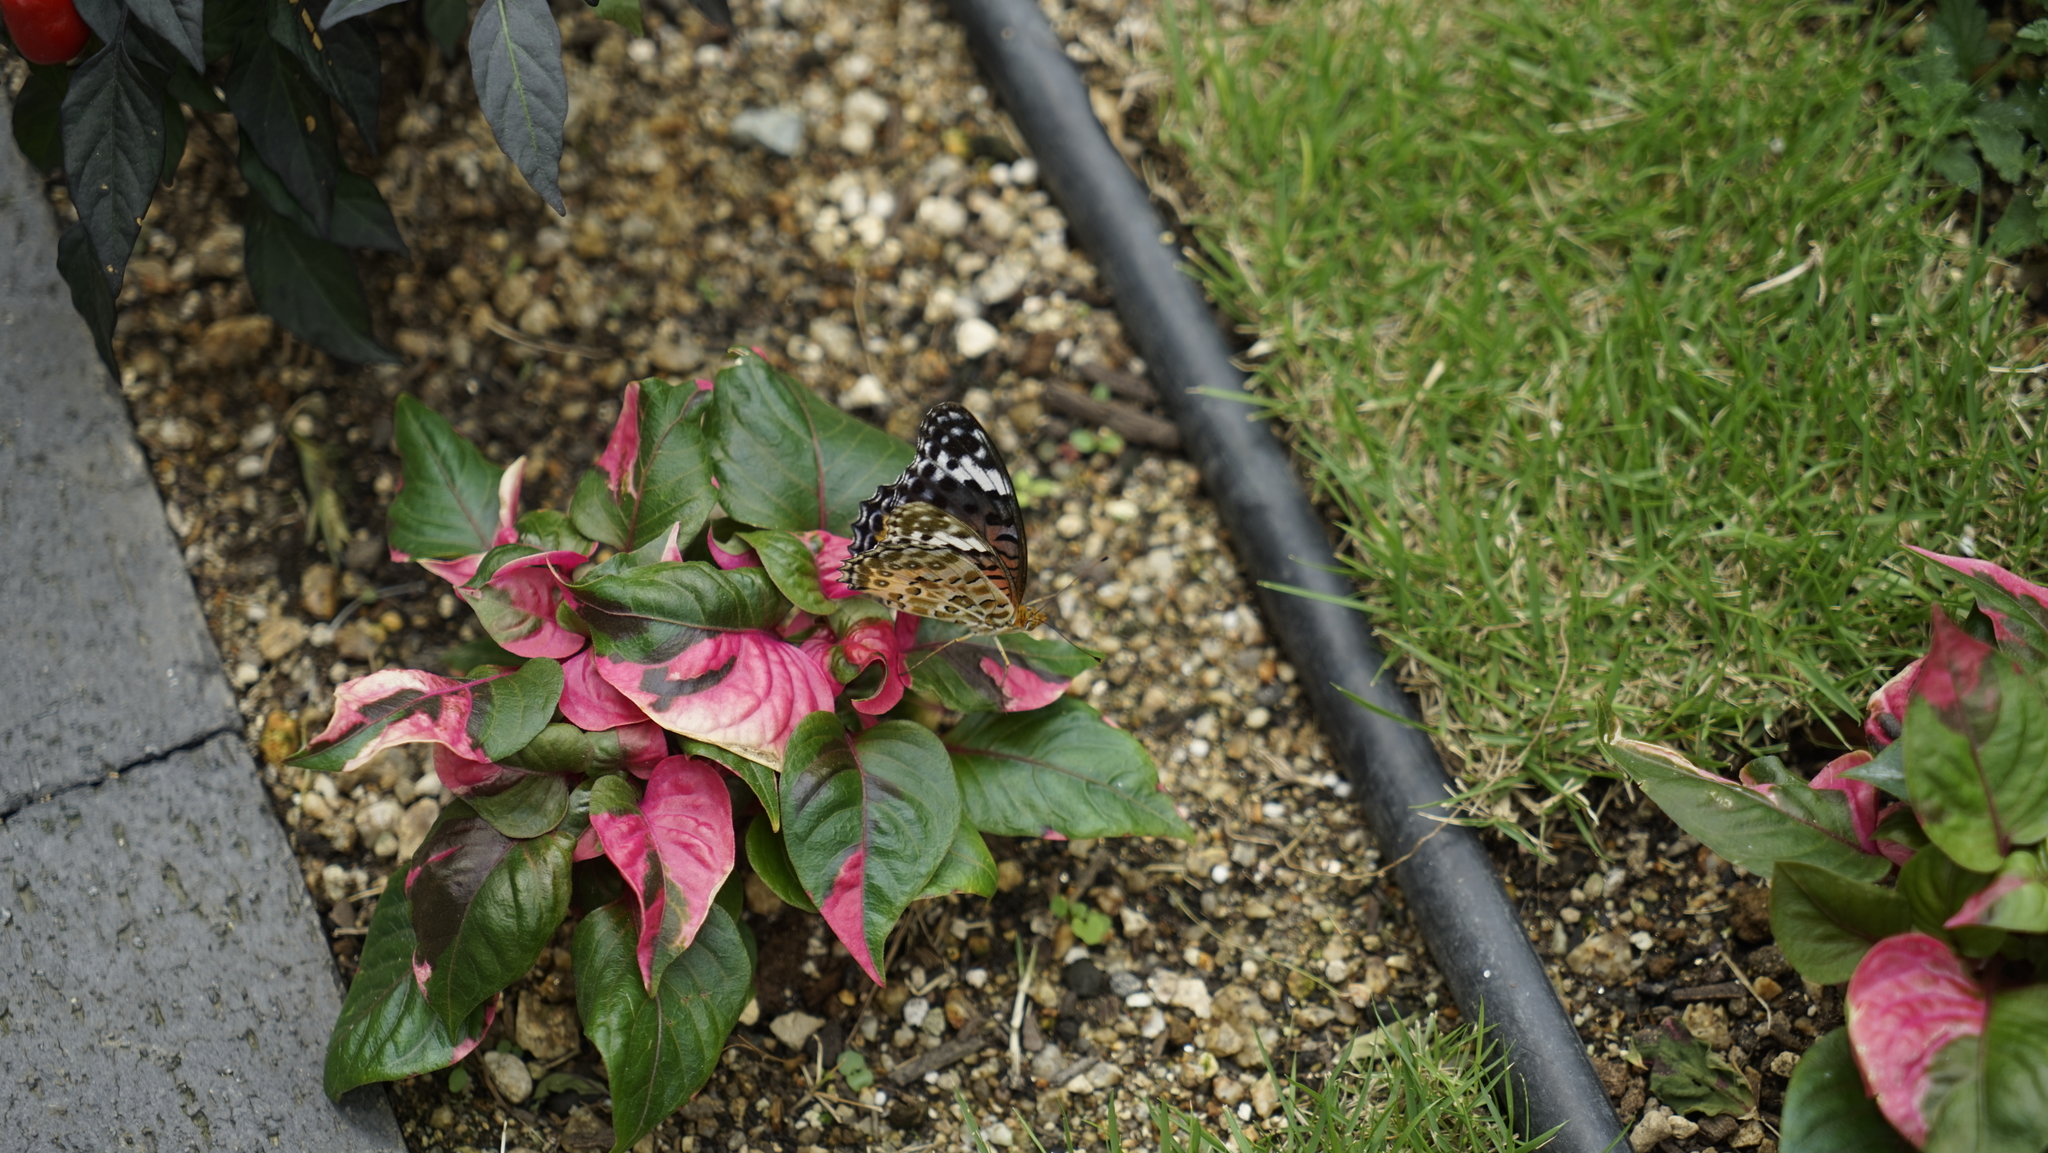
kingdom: Animalia
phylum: Arthropoda
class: Insecta
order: Lepidoptera
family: Nymphalidae
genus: Argynnis
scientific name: Argynnis hyperbius
